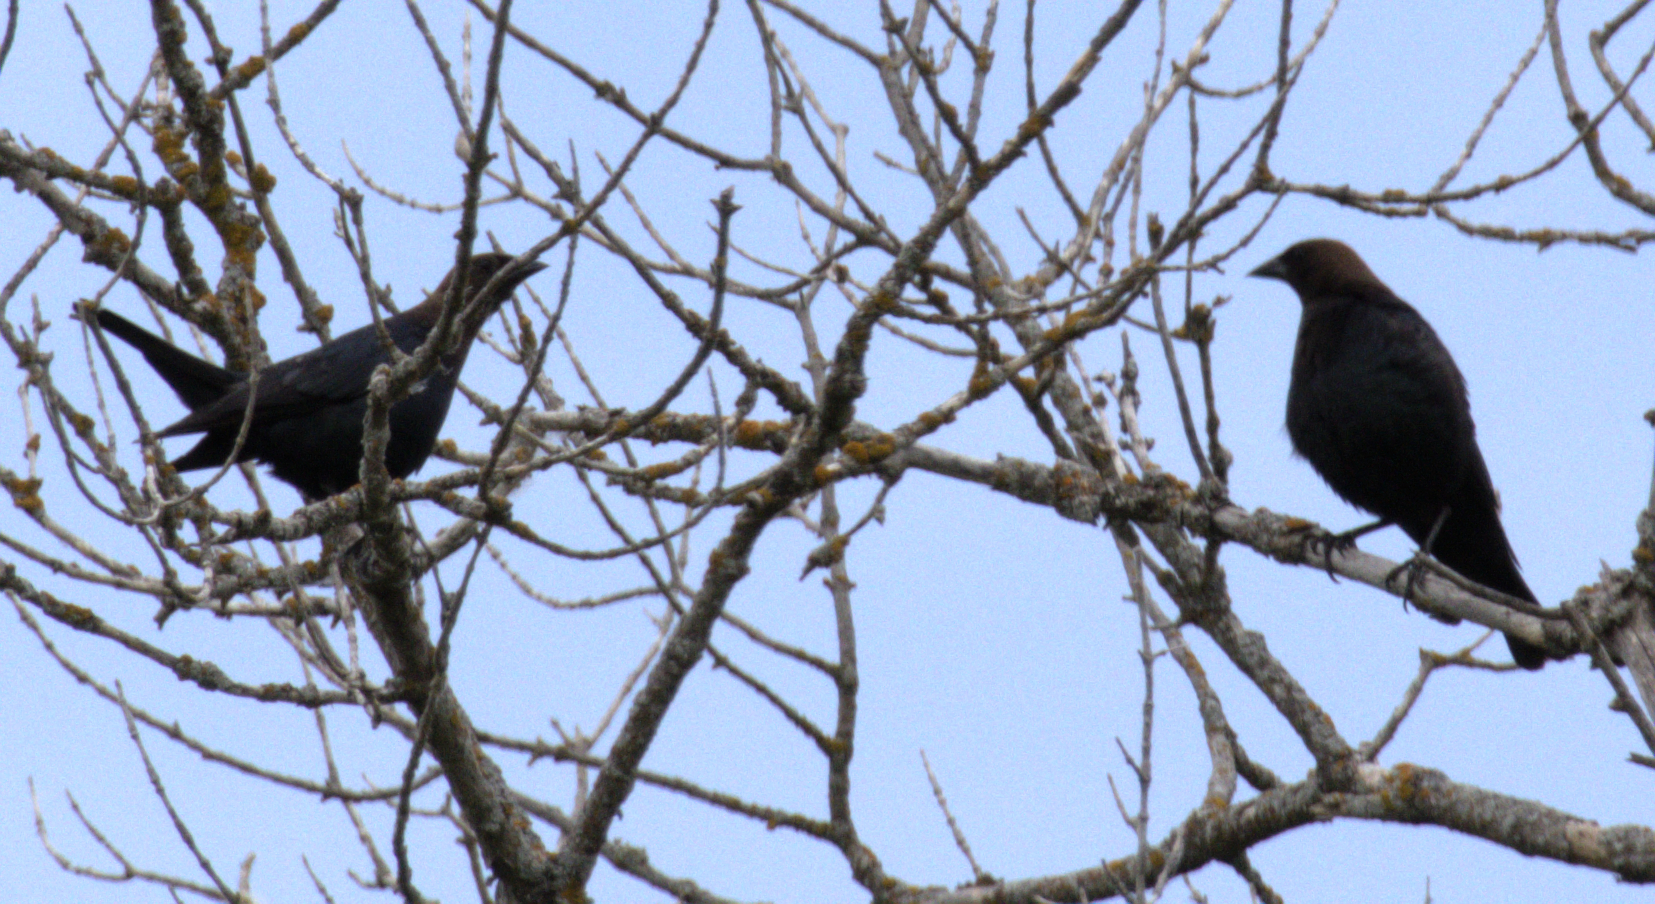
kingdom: Animalia
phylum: Chordata
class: Aves
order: Passeriformes
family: Icteridae
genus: Molothrus
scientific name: Molothrus ater
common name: Brown-headed cowbird
